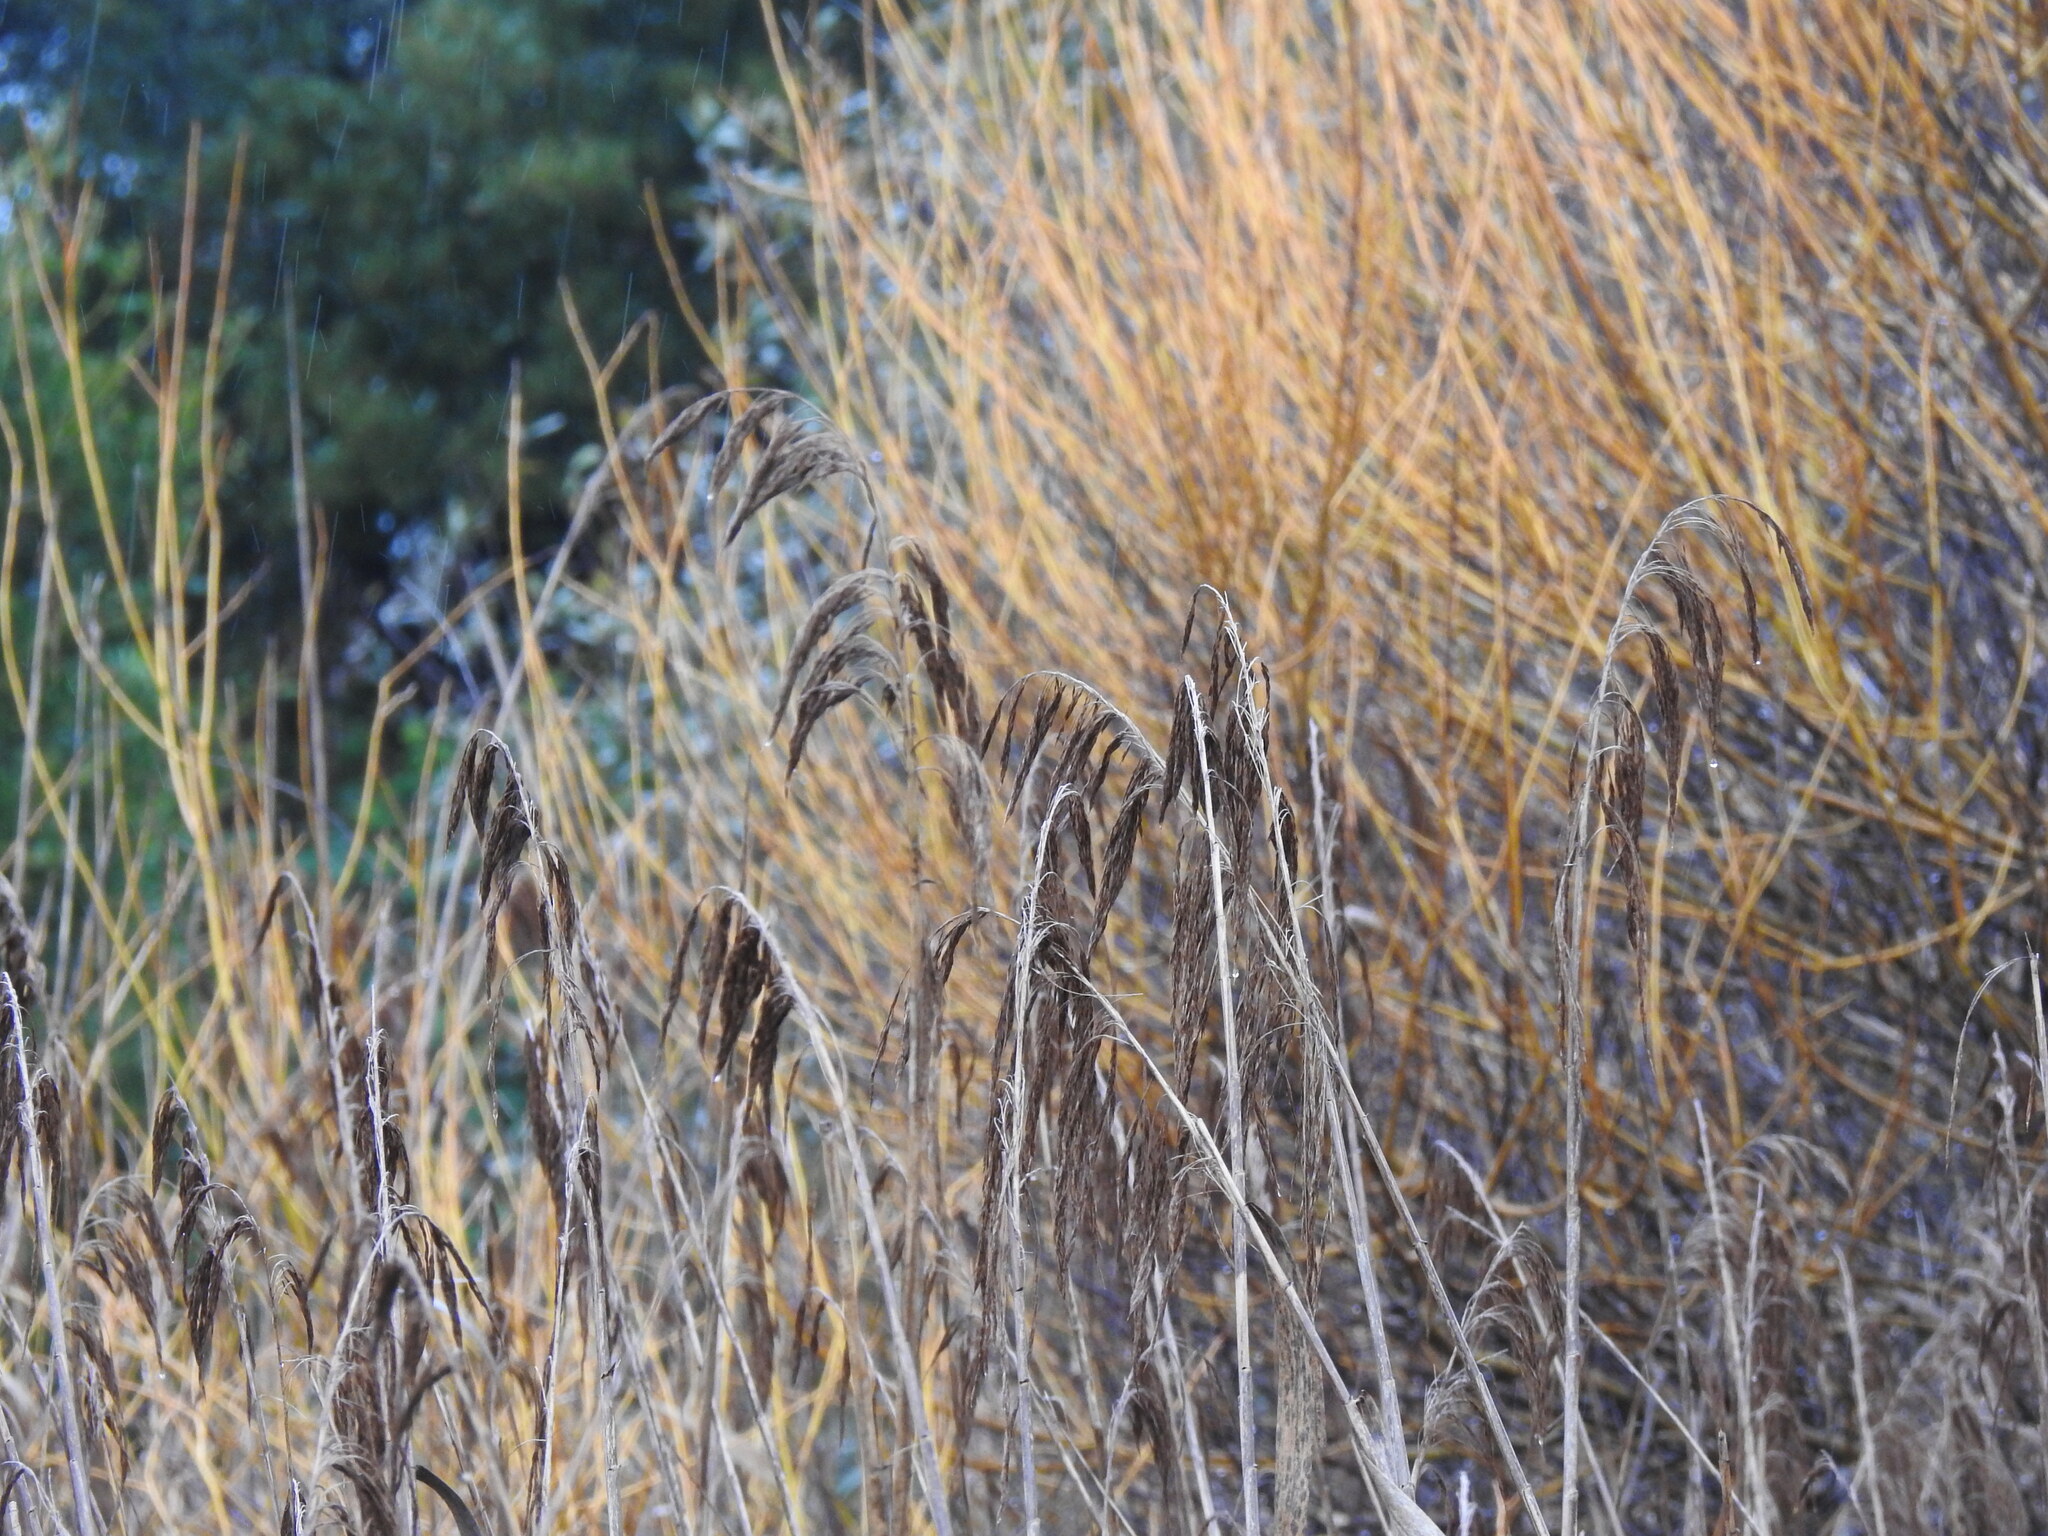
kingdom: Plantae
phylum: Tracheophyta
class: Liliopsida
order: Poales
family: Poaceae
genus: Phragmites
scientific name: Phragmites australis
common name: Common reed
